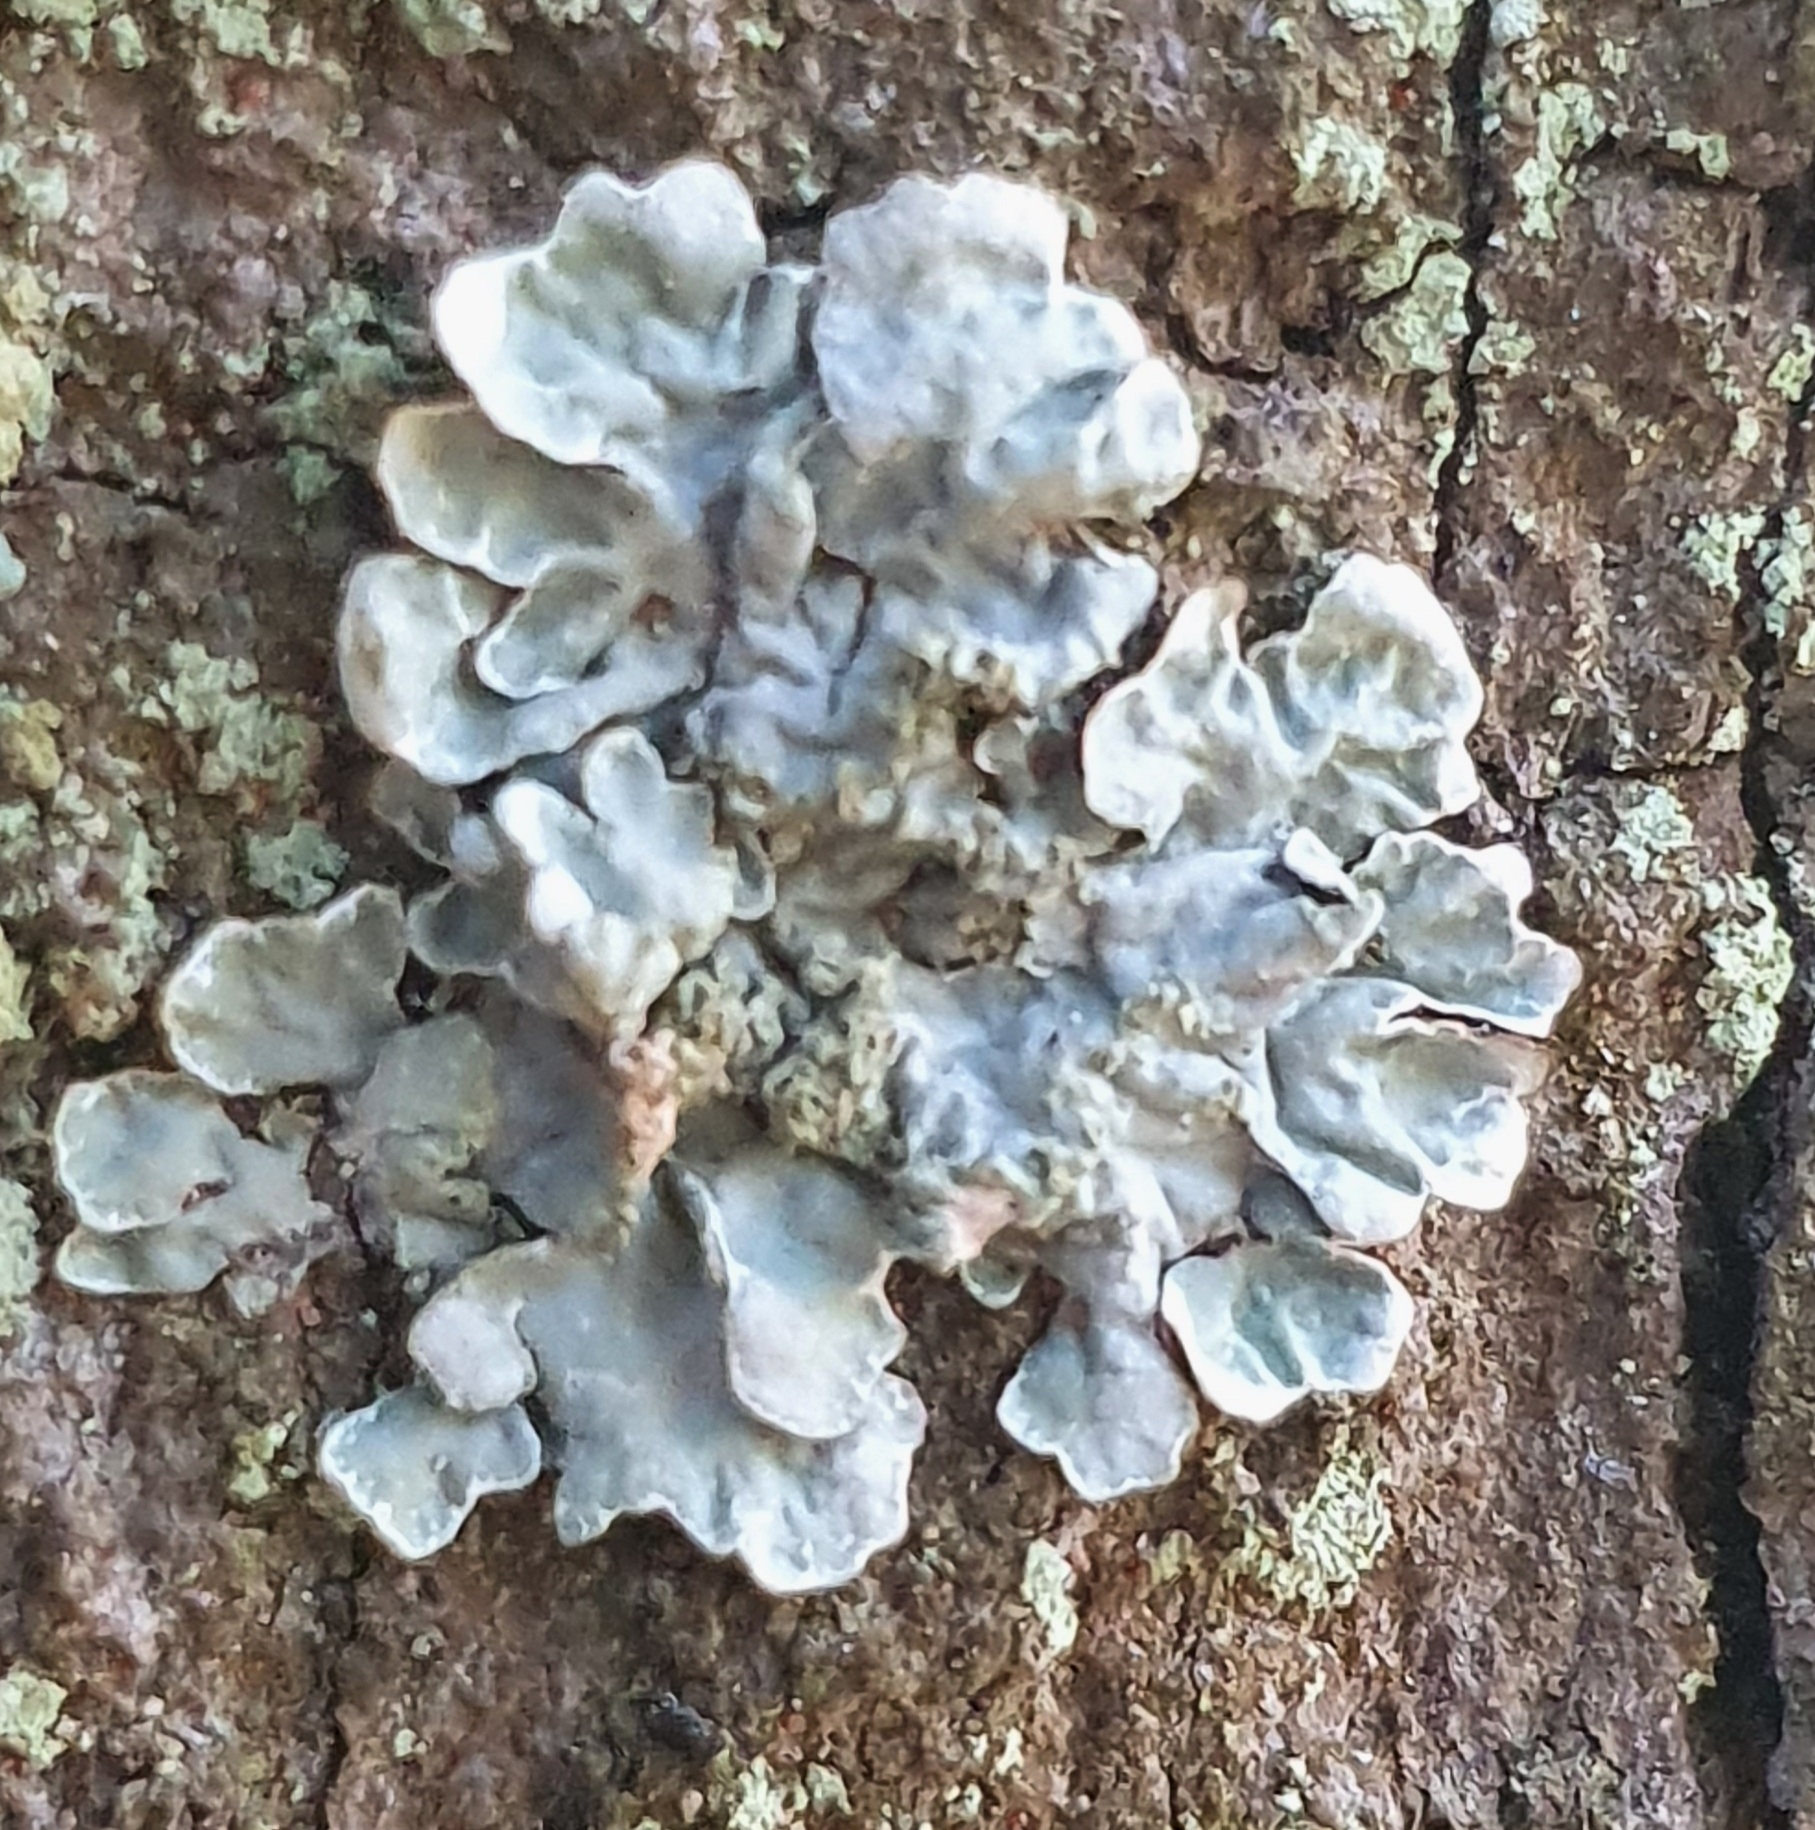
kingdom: Fungi
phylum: Ascomycota
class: Lecanoromycetes
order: Lecanorales
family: Parmeliaceae
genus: Parmelia
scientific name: Parmelia sulcata
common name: Netted shield lichen
